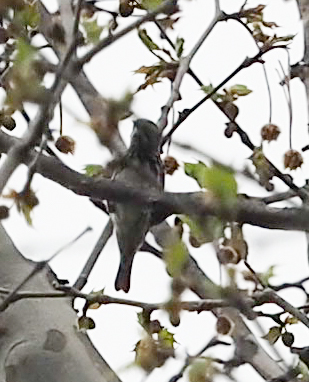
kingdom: Animalia
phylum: Chordata
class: Aves
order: Passeriformes
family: Parulidae
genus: Mniotilta
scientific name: Mniotilta varia
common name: Black-and-white warbler
